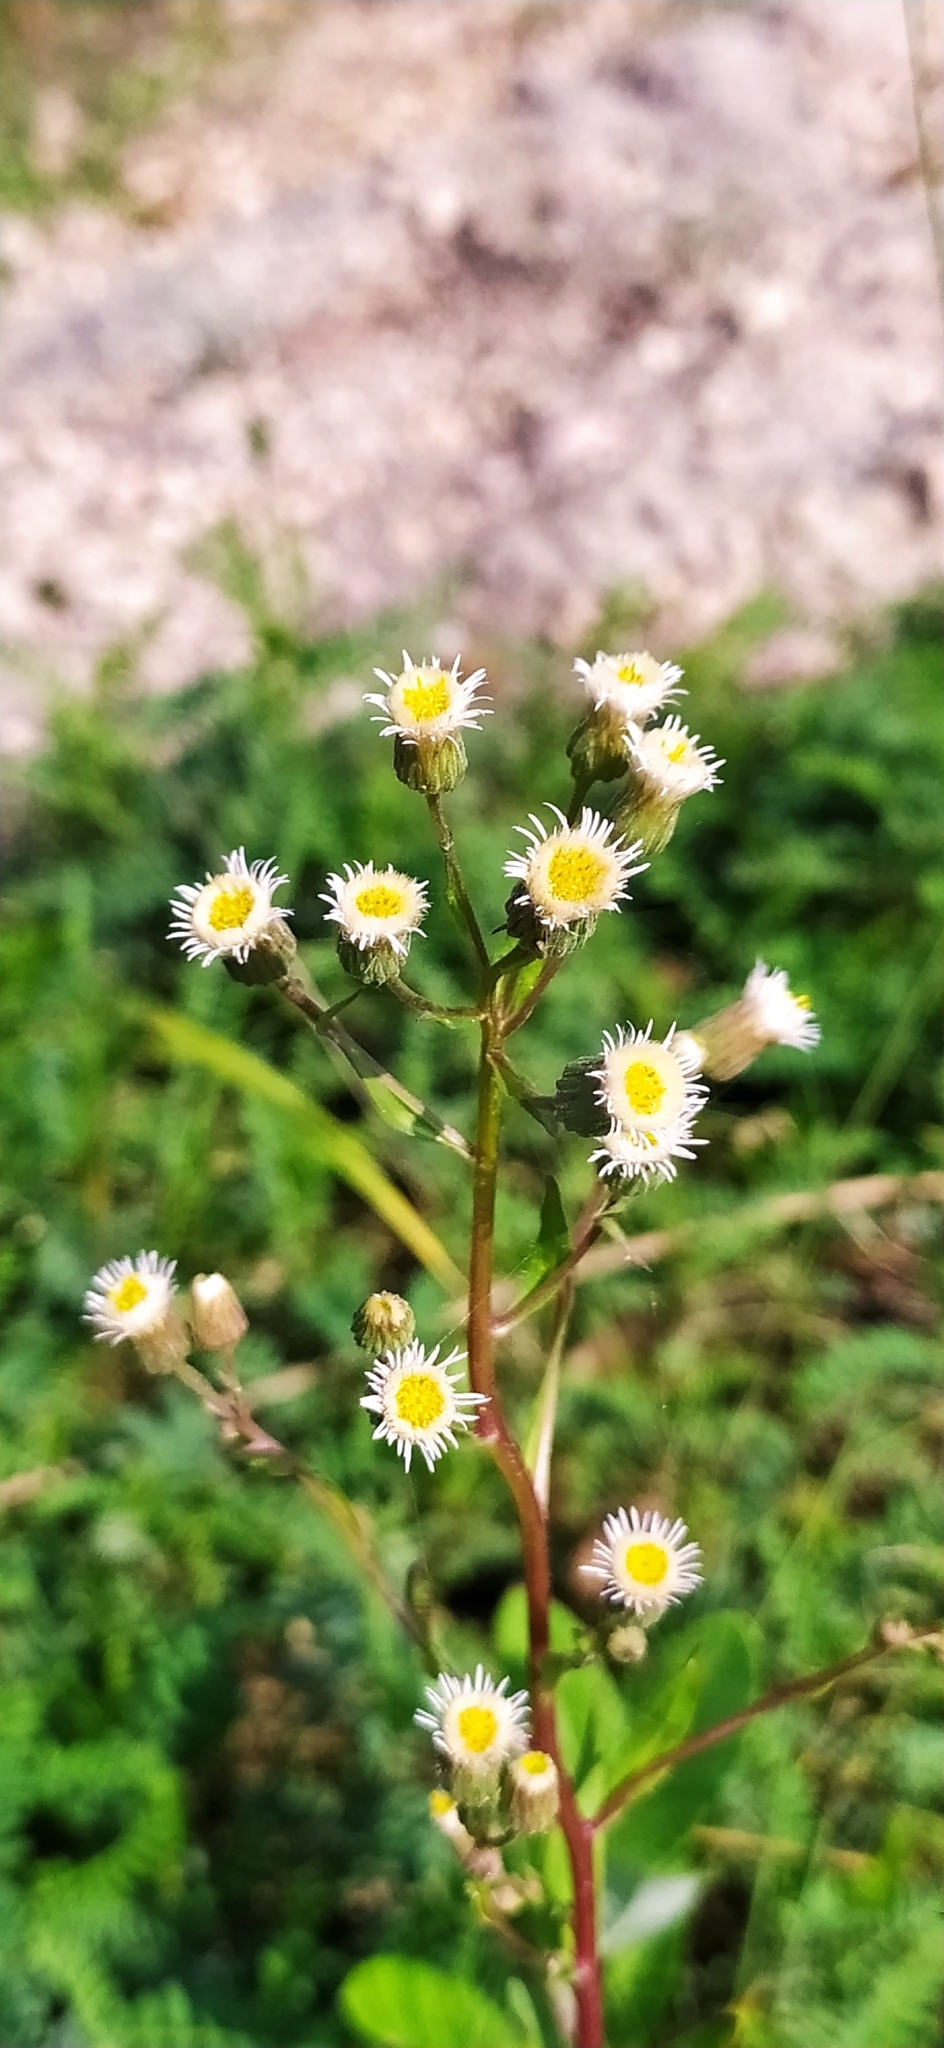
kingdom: Plantae
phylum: Tracheophyta
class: Magnoliopsida
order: Asterales
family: Asteraceae
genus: Erigeron
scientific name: Erigeron acris
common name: Blue fleabane
